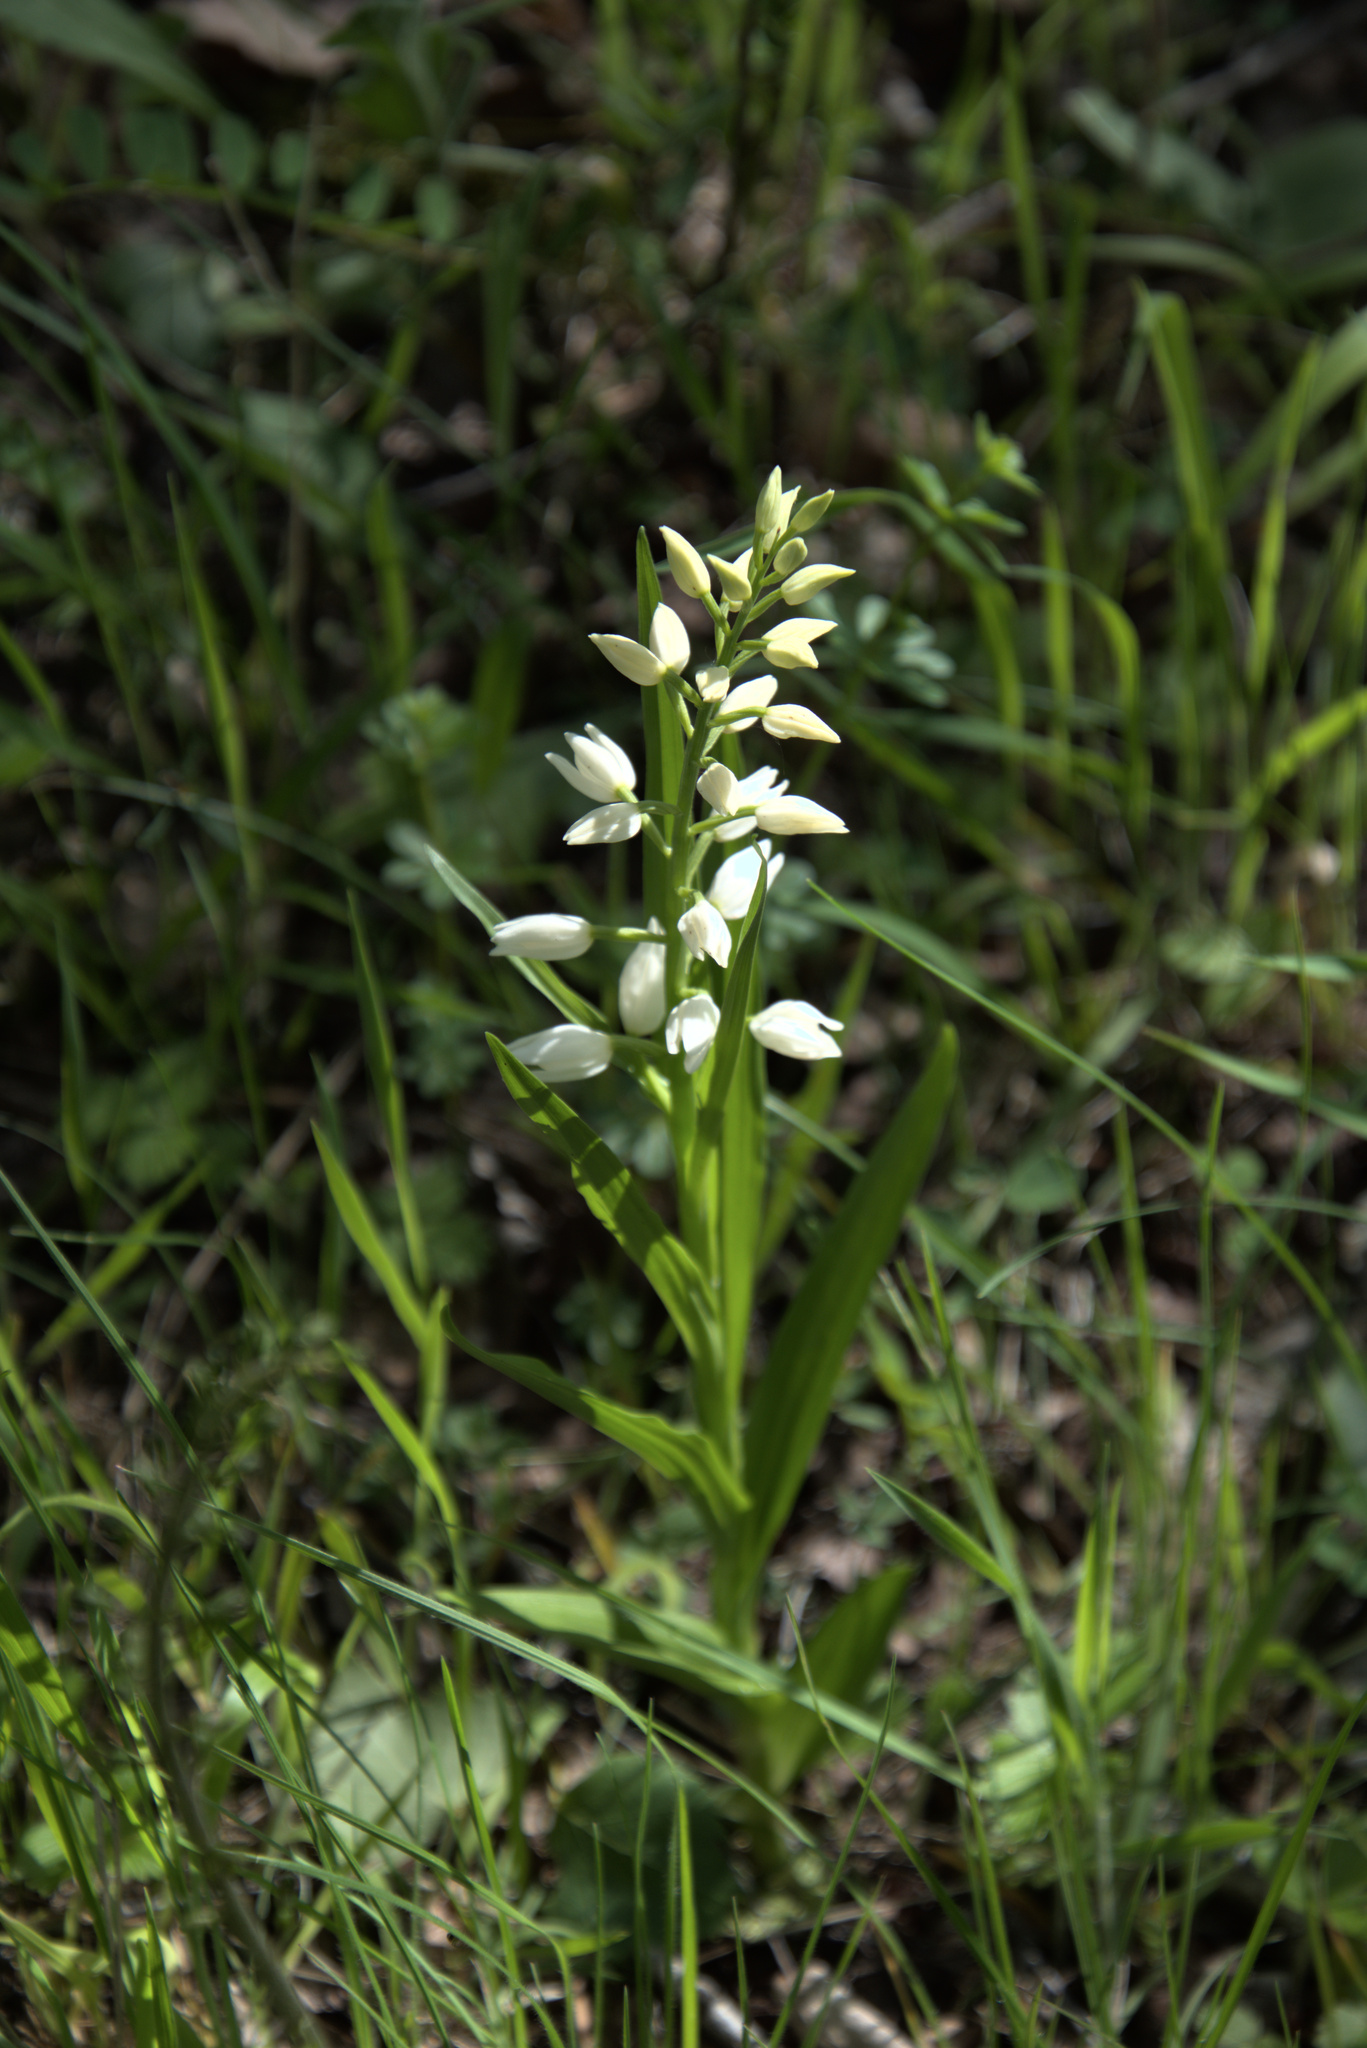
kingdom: Plantae
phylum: Tracheophyta
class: Liliopsida
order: Asparagales
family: Orchidaceae
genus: Cephalanthera
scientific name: Cephalanthera longifolia
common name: Narrow-leaved helleborine
